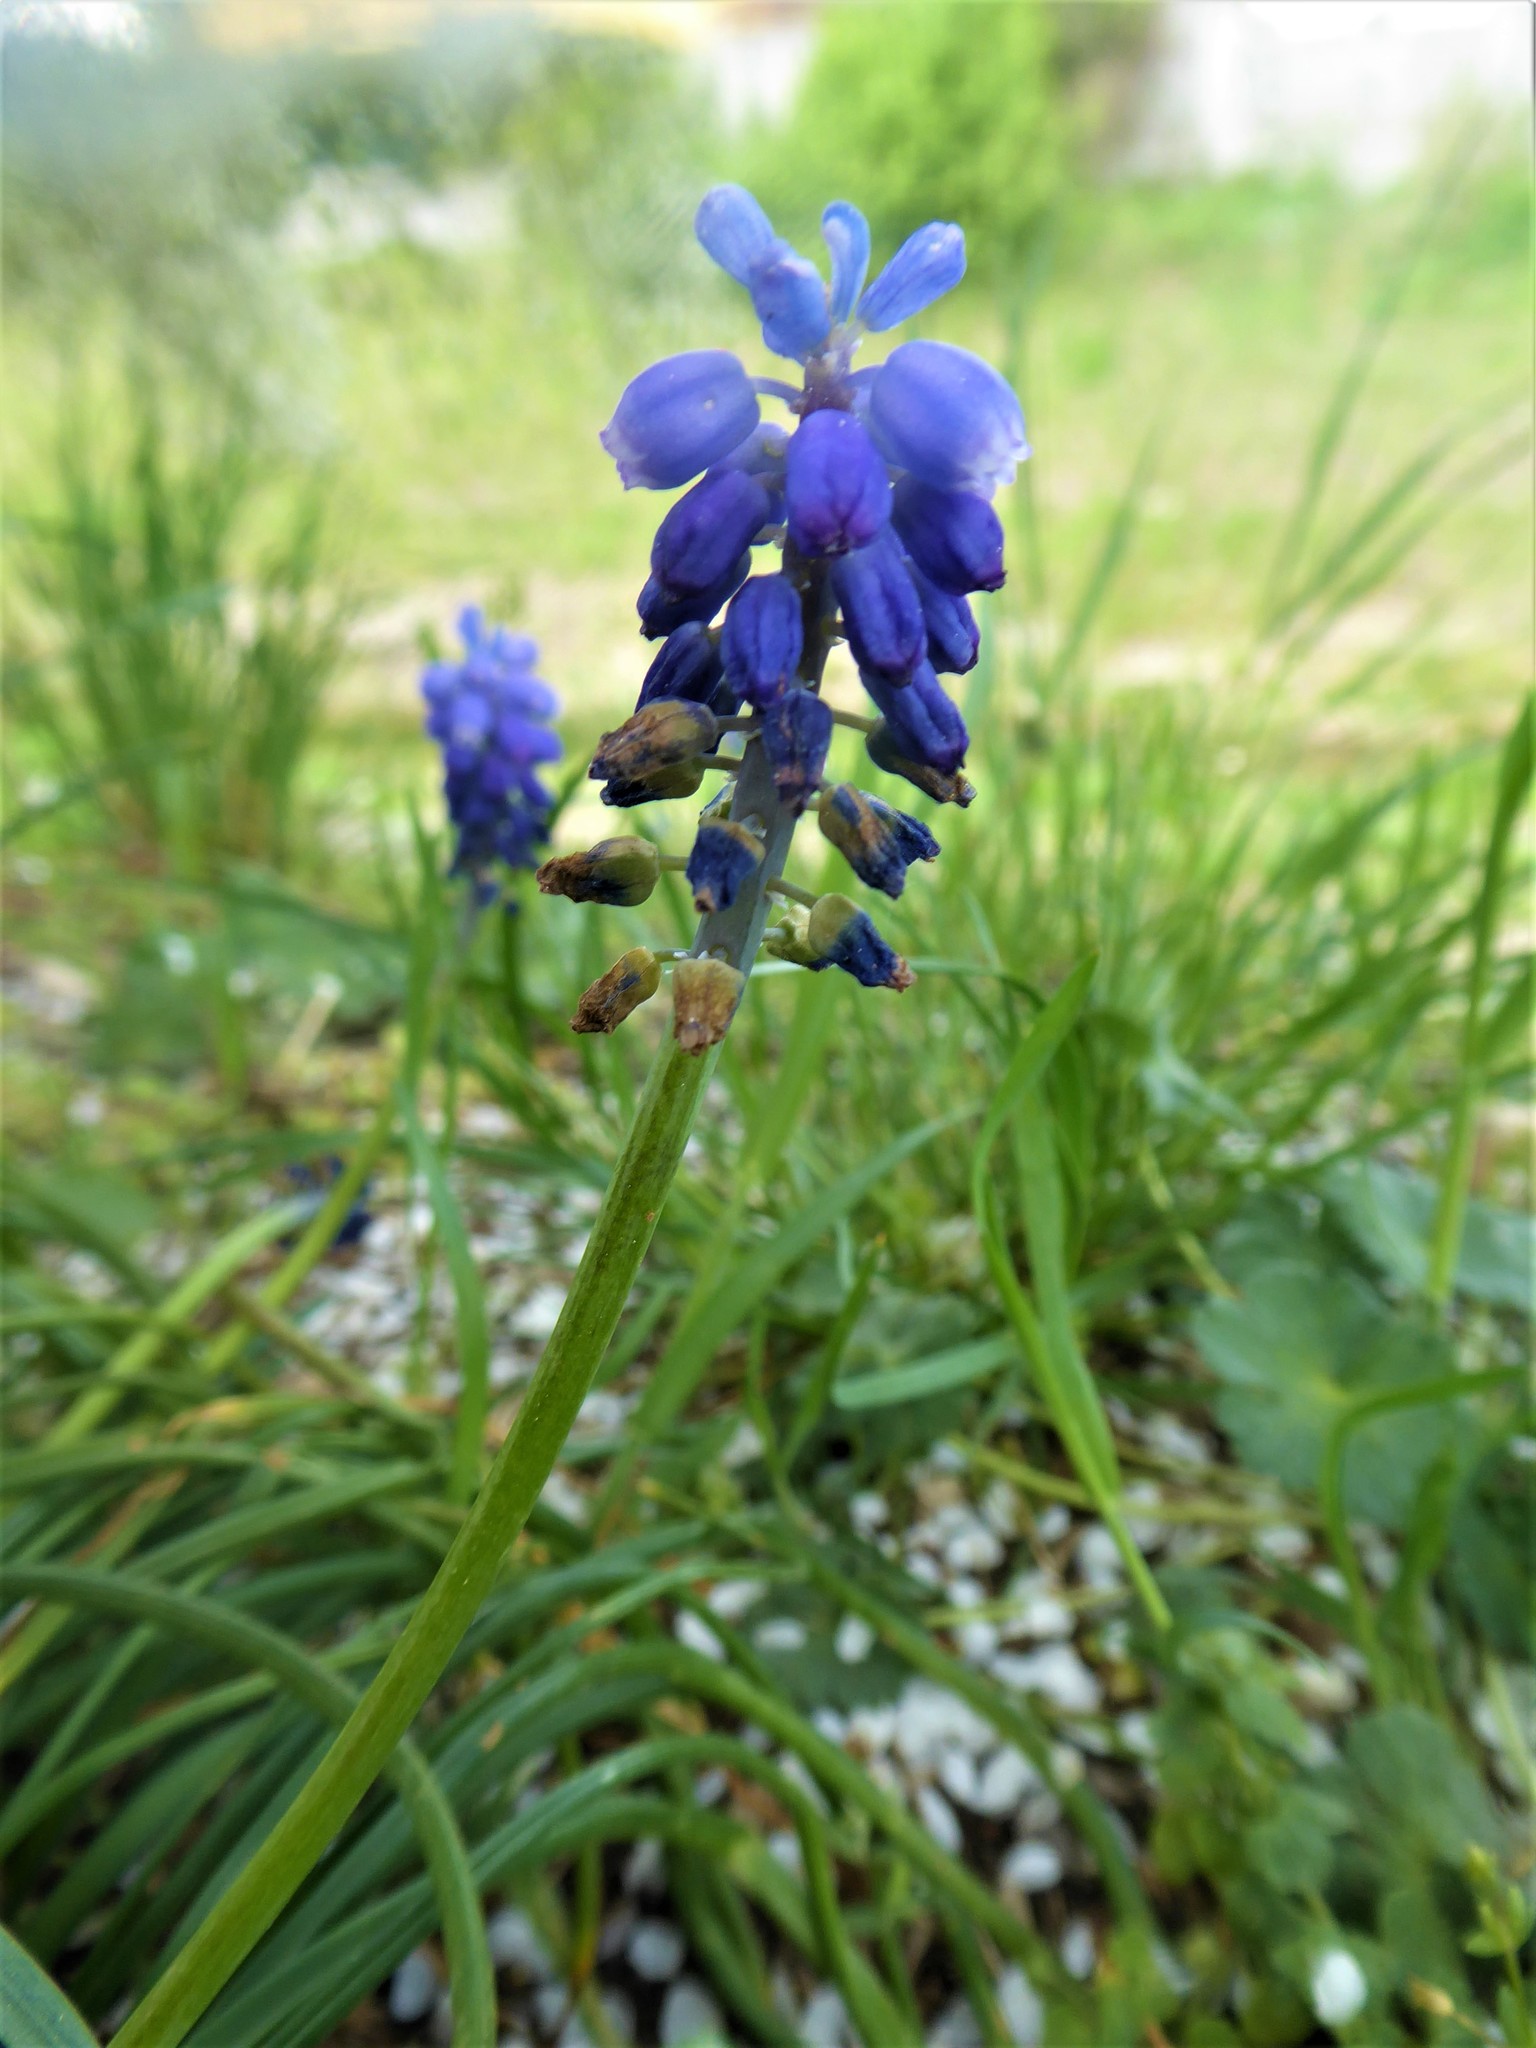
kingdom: Plantae
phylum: Tracheophyta
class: Liliopsida
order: Asparagales
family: Asparagaceae
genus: Muscari
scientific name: Muscari armeniacum
